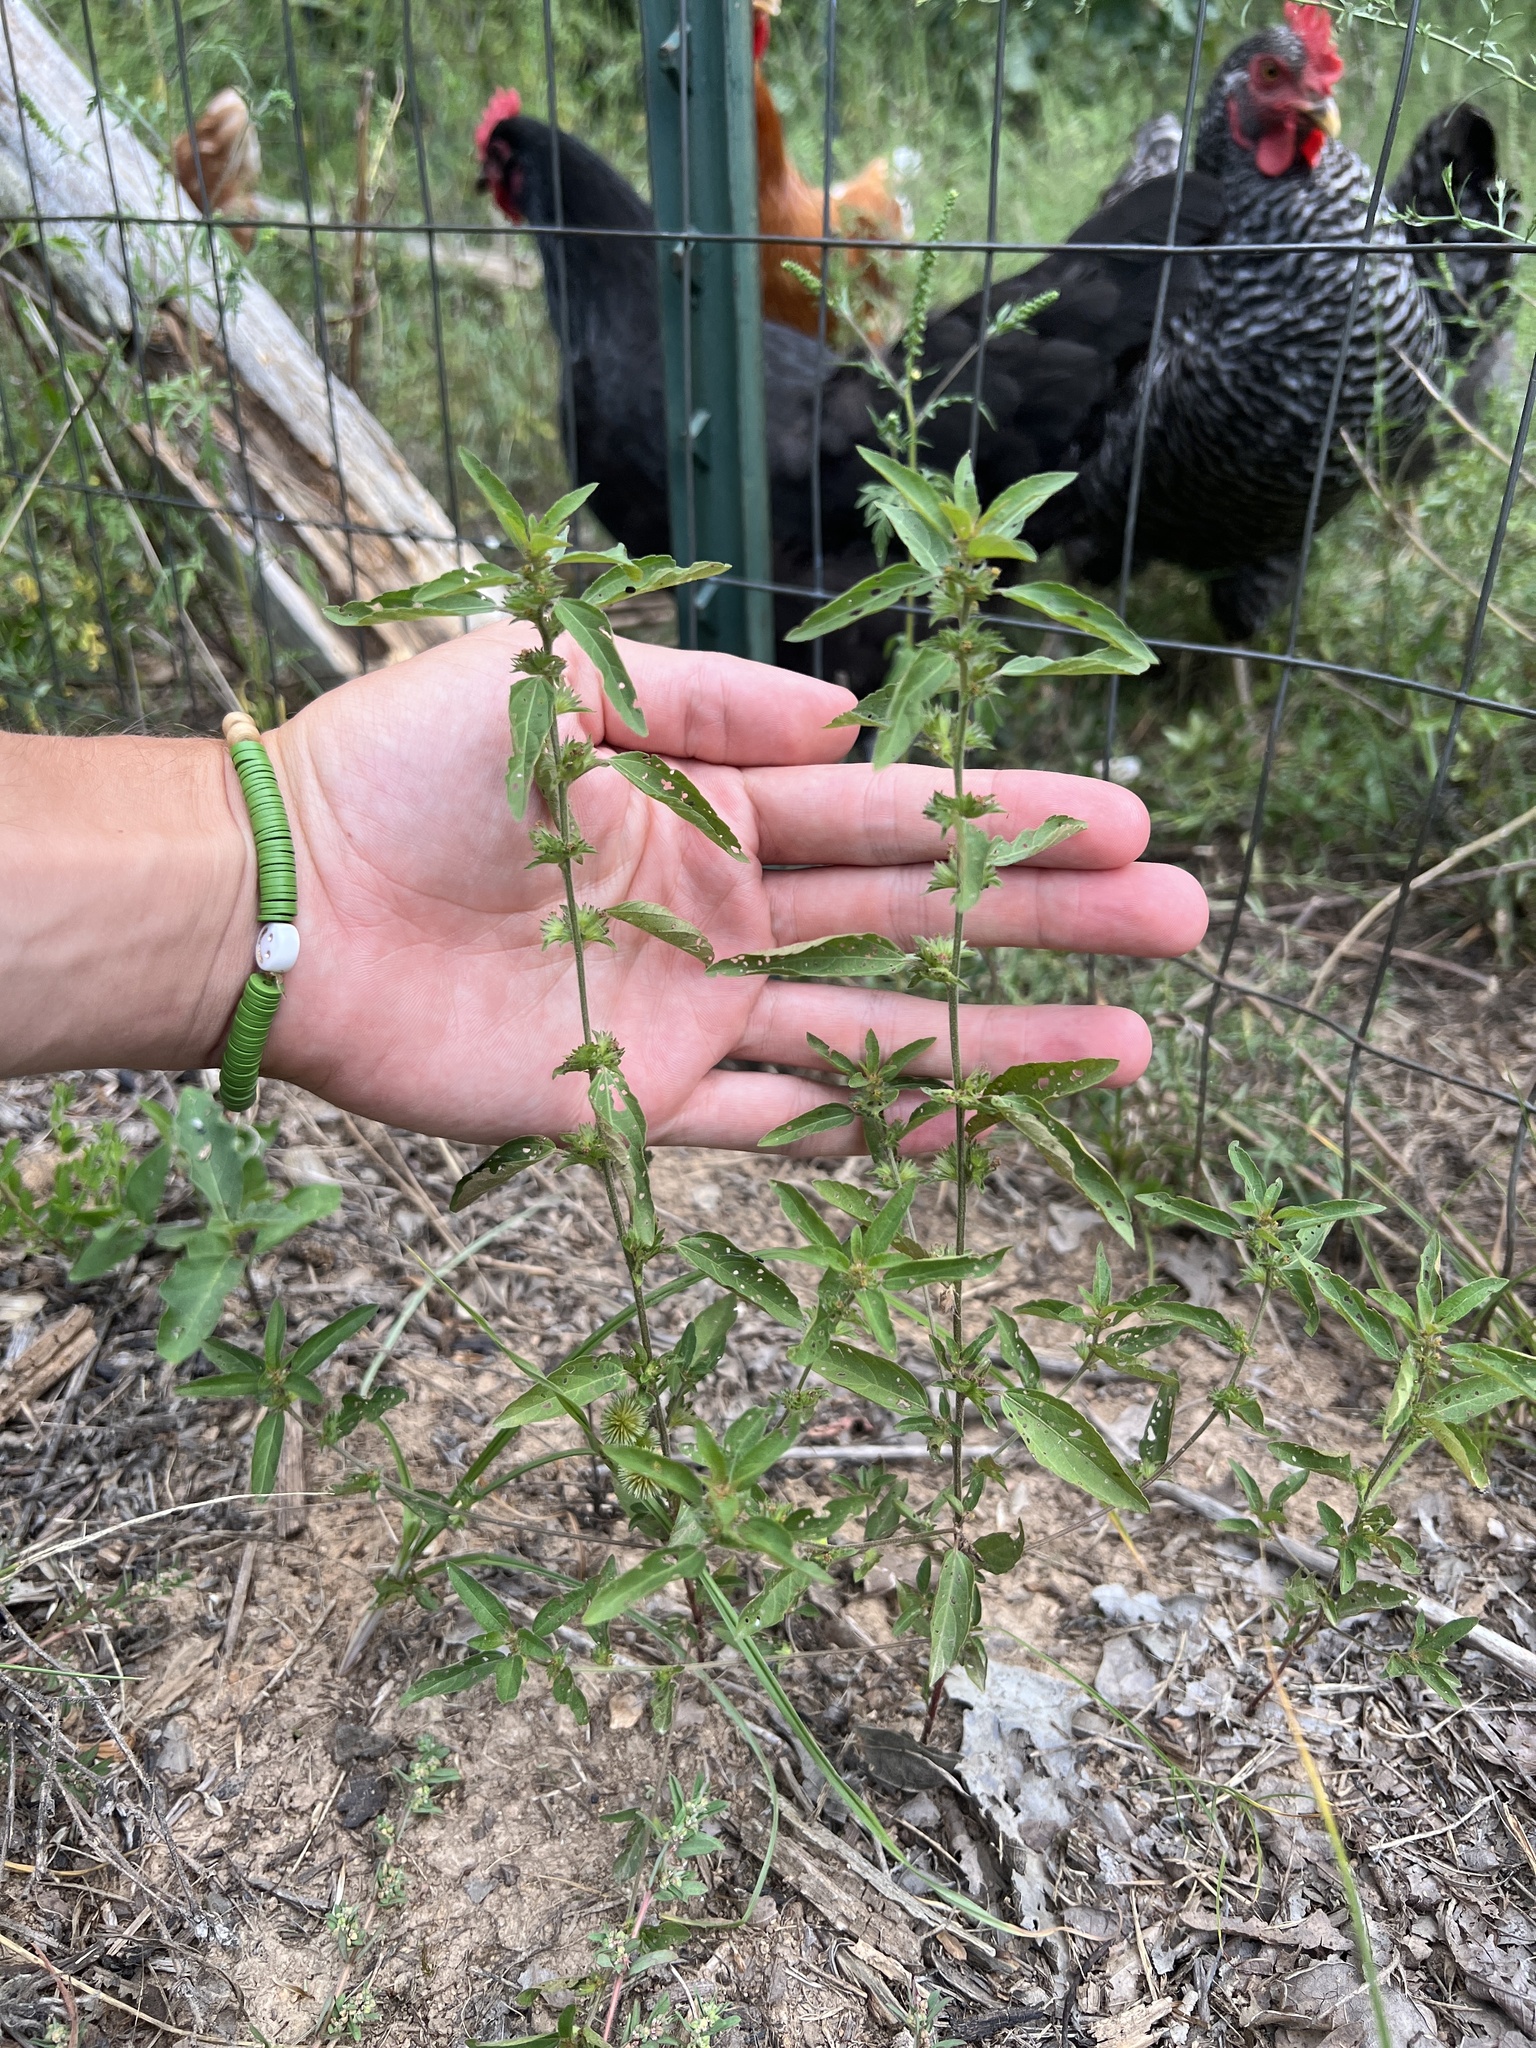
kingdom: Plantae
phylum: Tracheophyta
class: Magnoliopsida
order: Malpighiales
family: Euphorbiaceae
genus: Acalypha
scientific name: Acalypha virginica
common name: Virginia copperleaf
